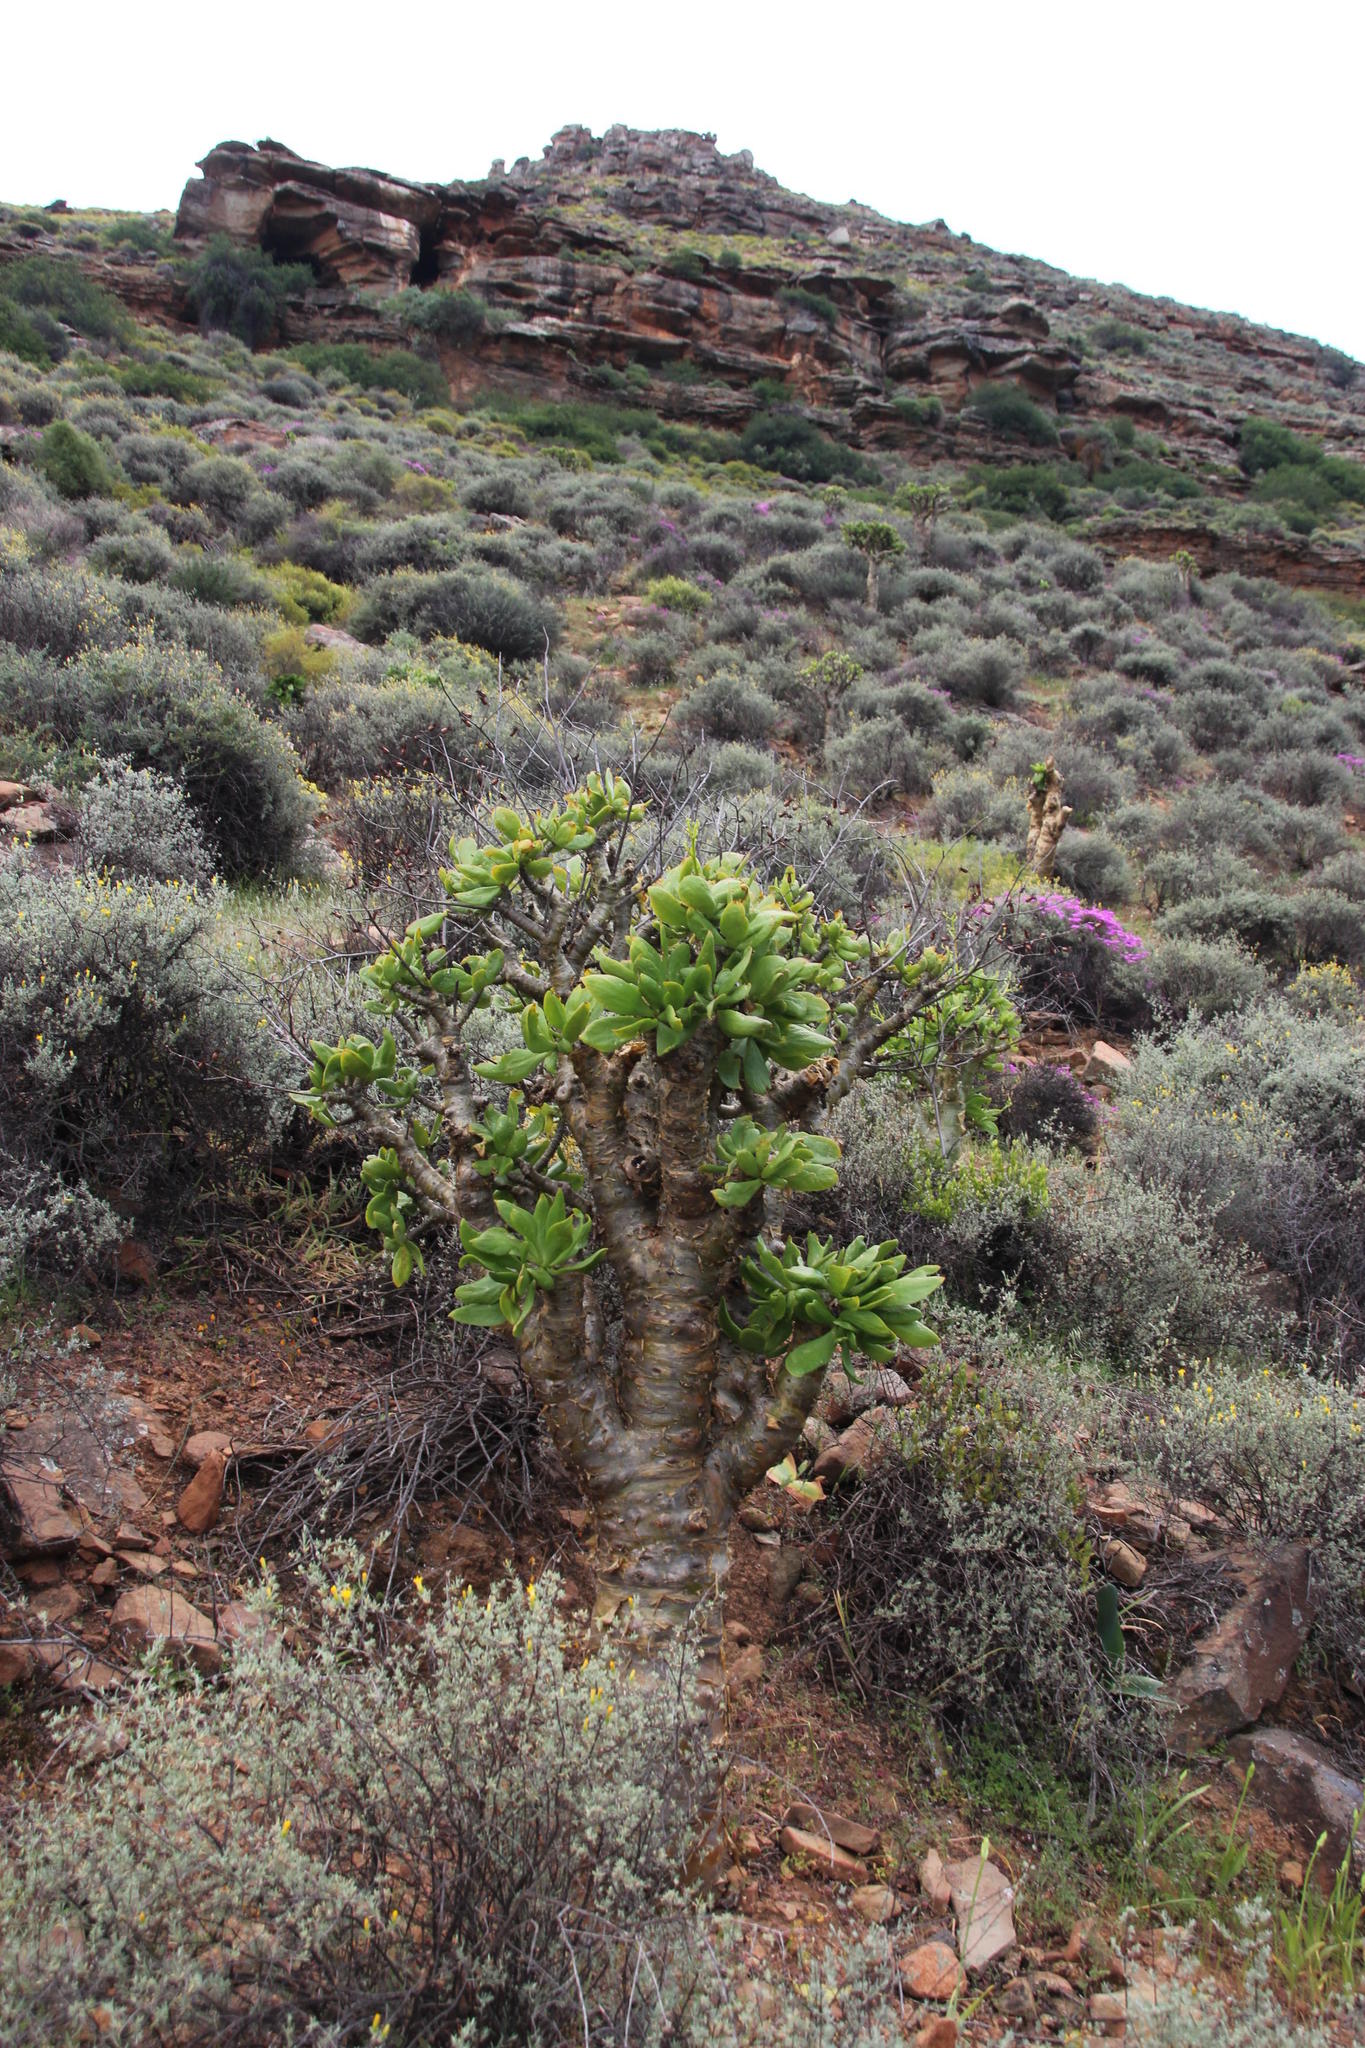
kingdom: Plantae
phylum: Tracheophyta
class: Magnoliopsida
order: Saxifragales
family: Crassulaceae
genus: Tylecodon
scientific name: Tylecodon paniculatus
